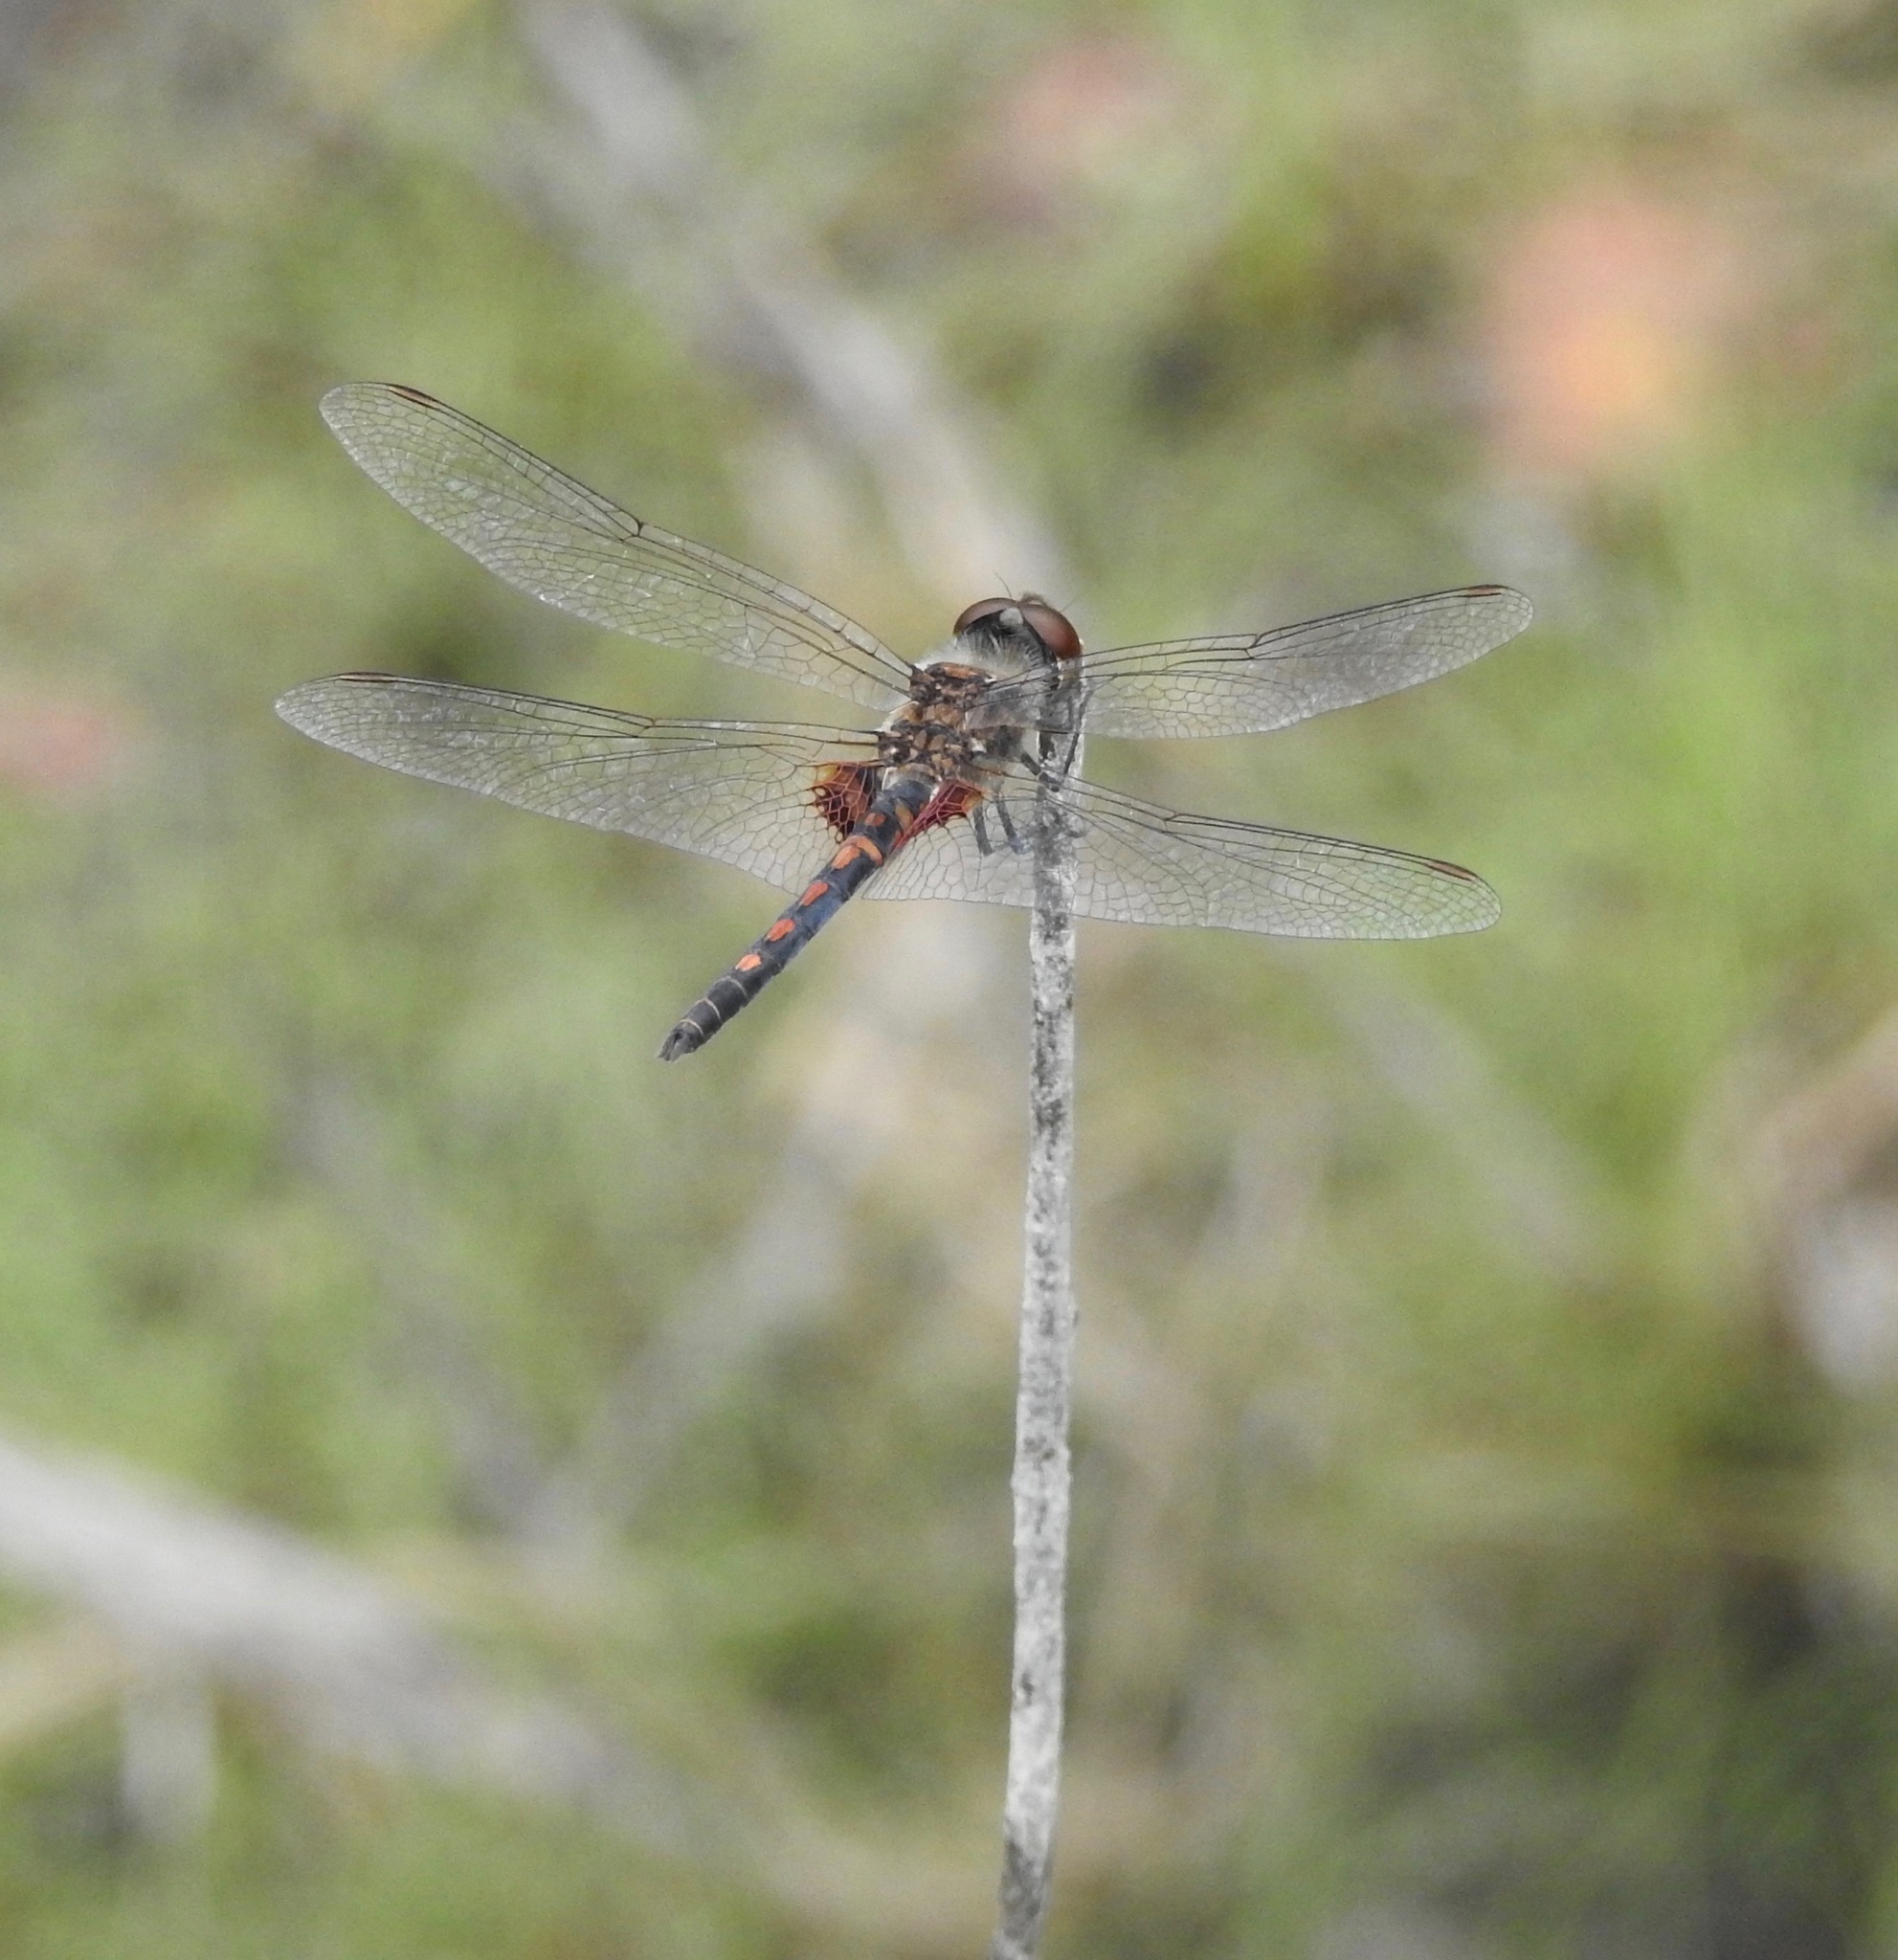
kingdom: Animalia
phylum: Arthropoda
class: Insecta
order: Odonata
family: Libellulidae
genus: Celithemis
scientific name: Celithemis ornata
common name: Ornate pennant
